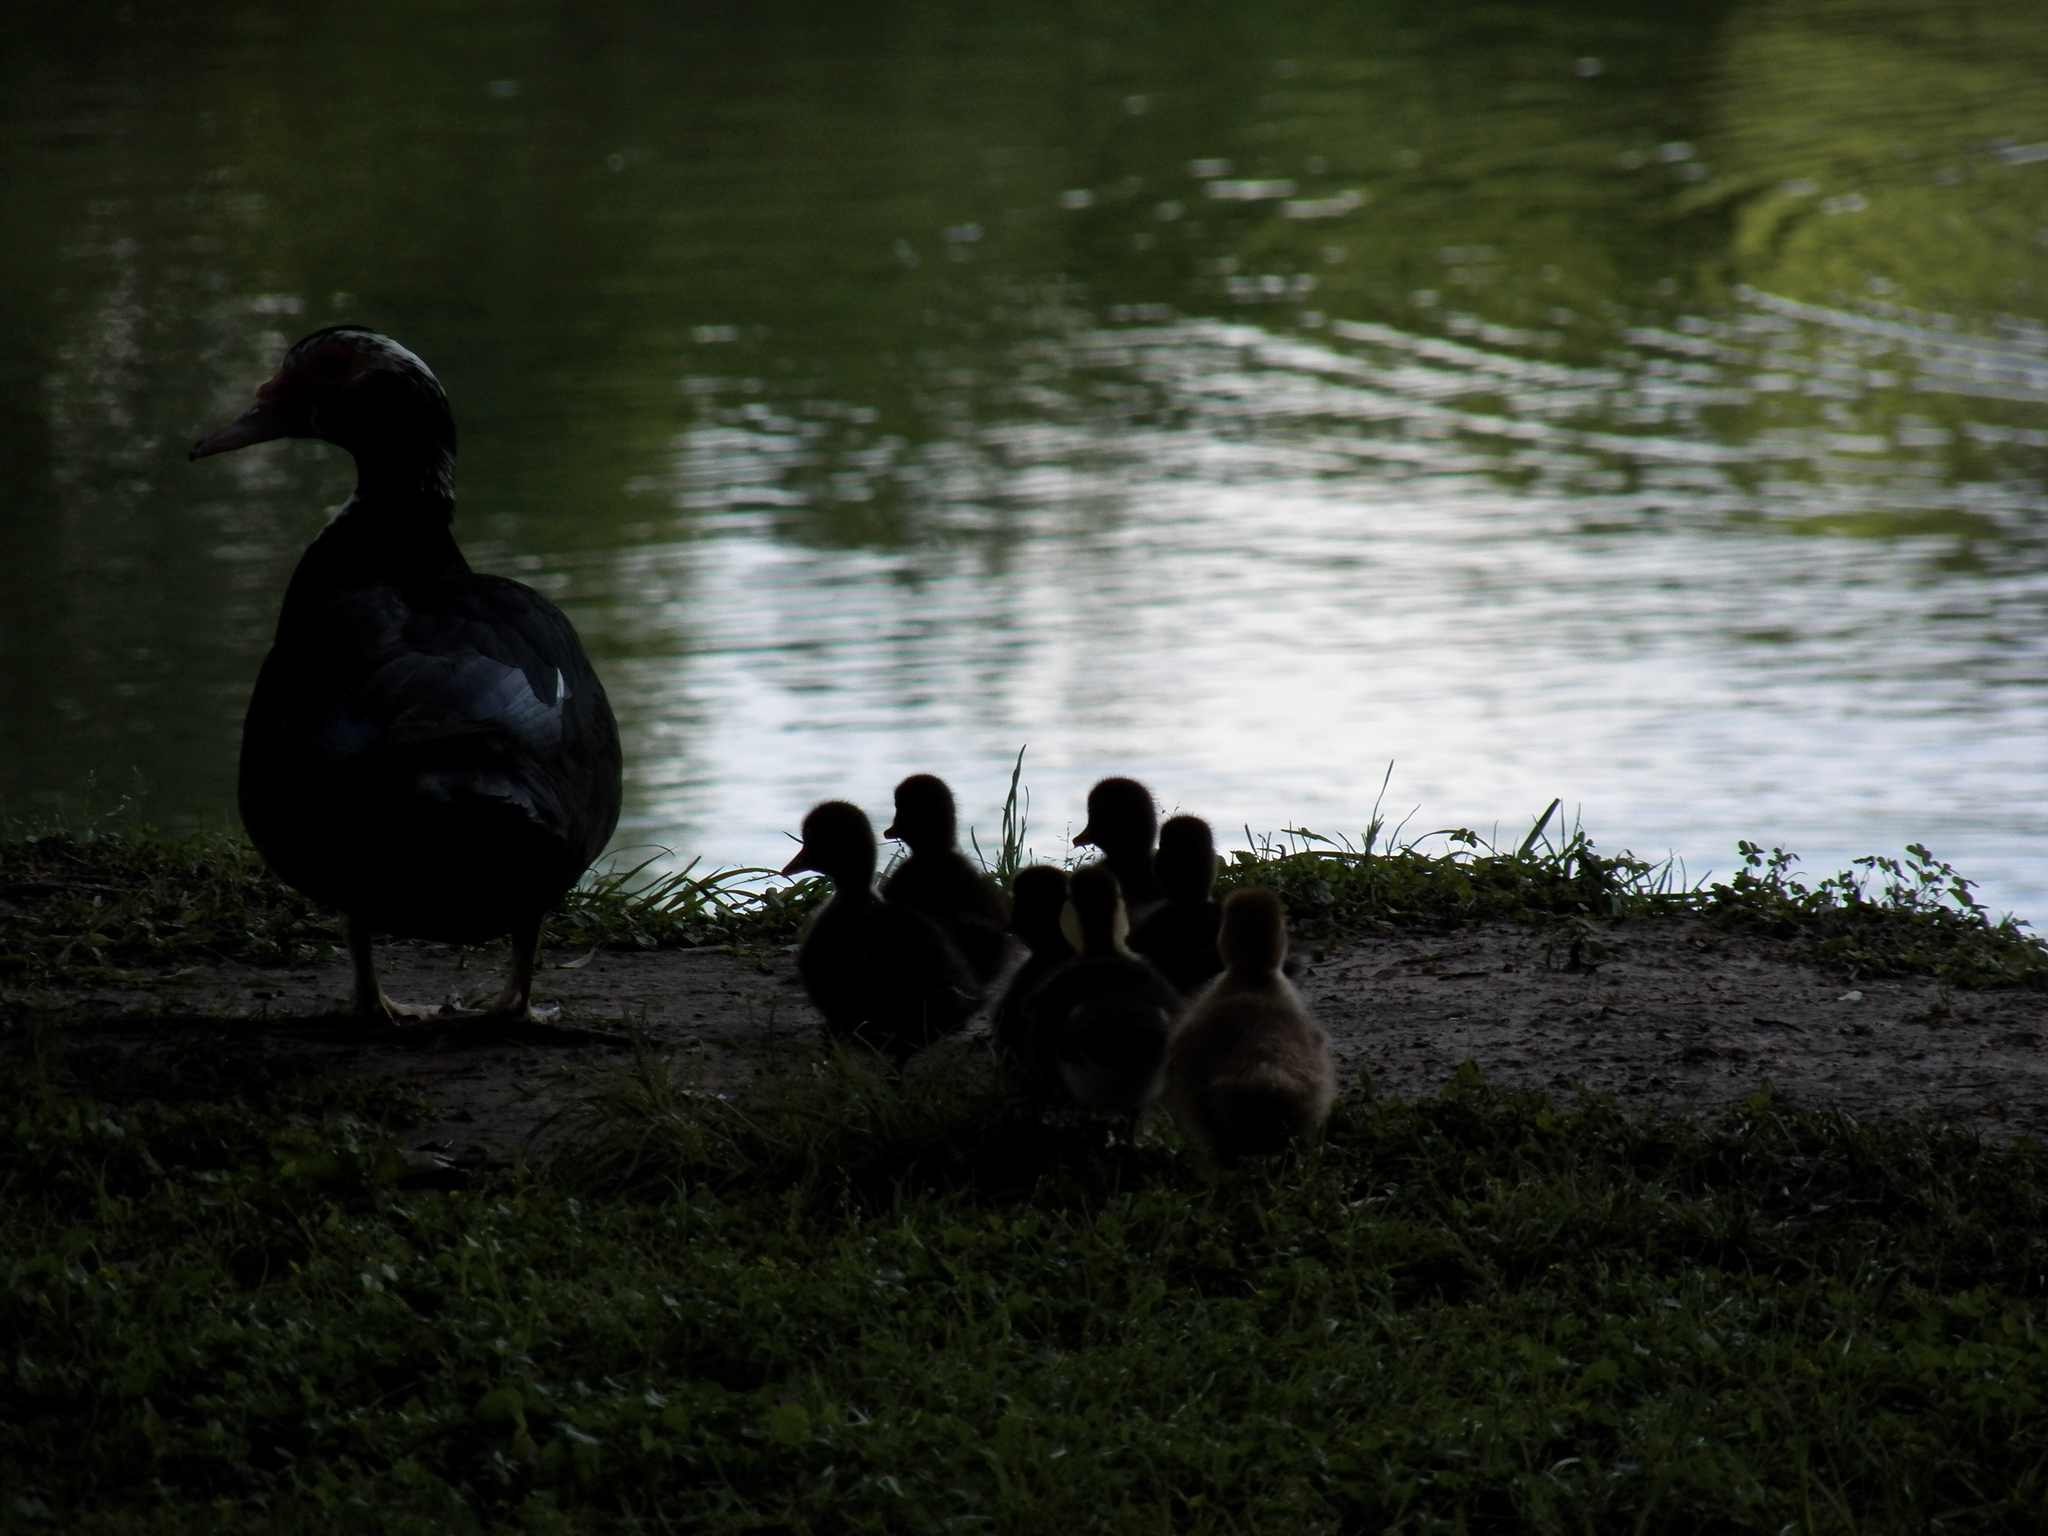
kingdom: Animalia
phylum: Chordata
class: Aves
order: Anseriformes
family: Anatidae
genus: Cairina
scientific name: Cairina moschata
